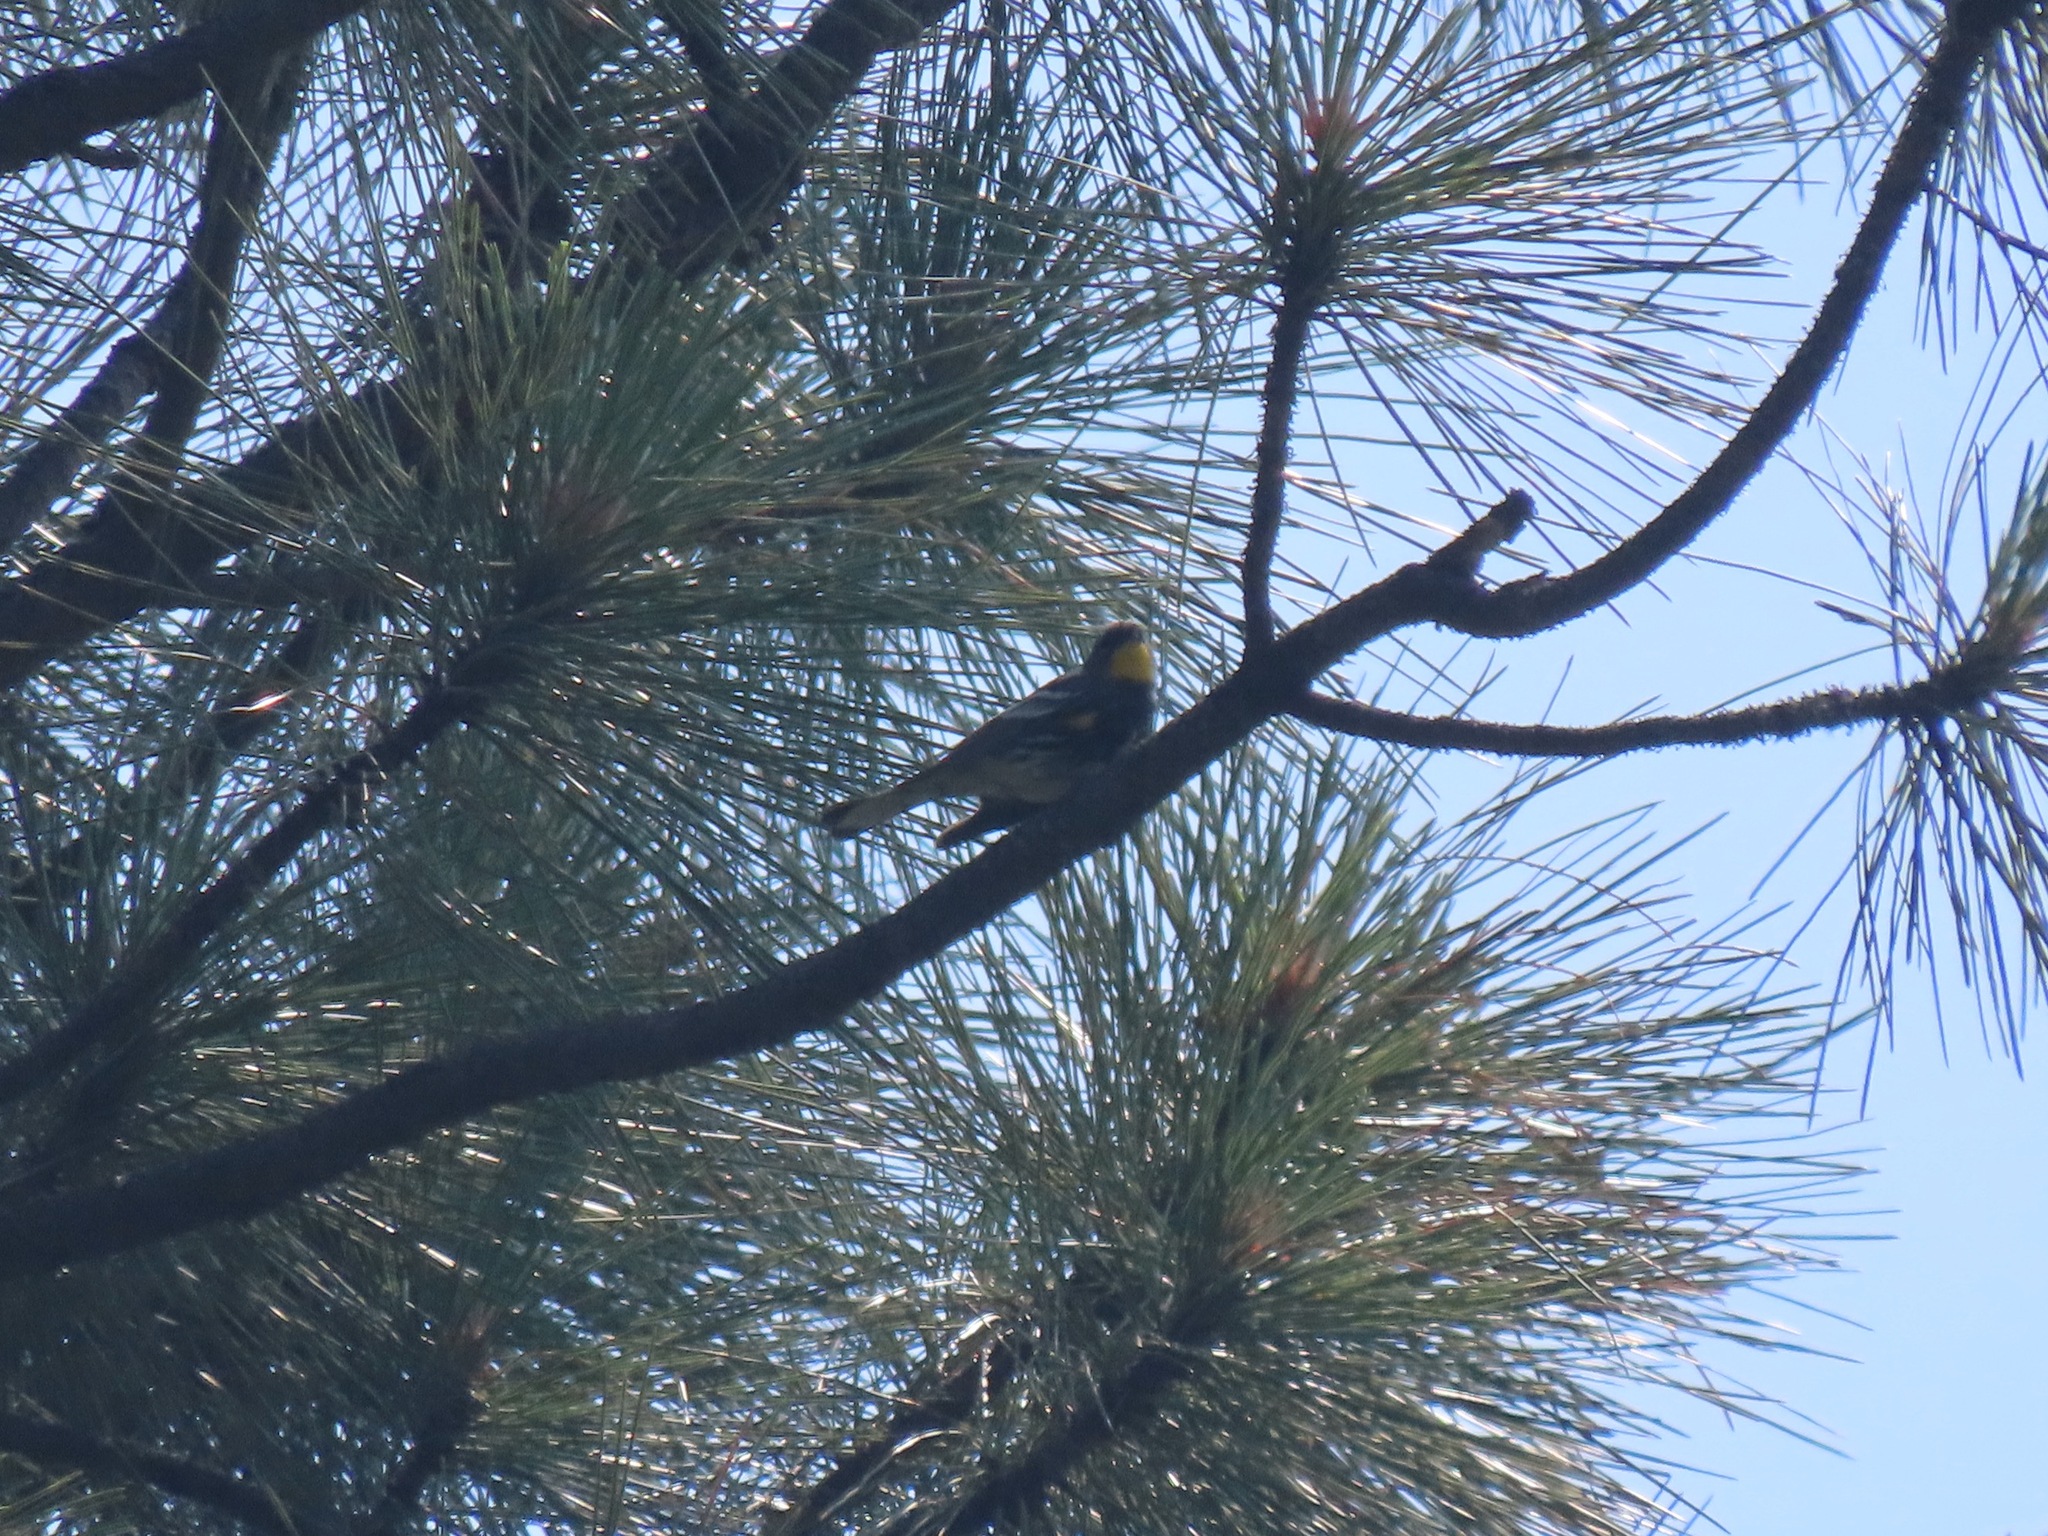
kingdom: Animalia
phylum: Chordata
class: Aves
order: Passeriformes
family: Parulidae
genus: Setophaga
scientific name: Setophaga coronata
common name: Myrtle warbler
